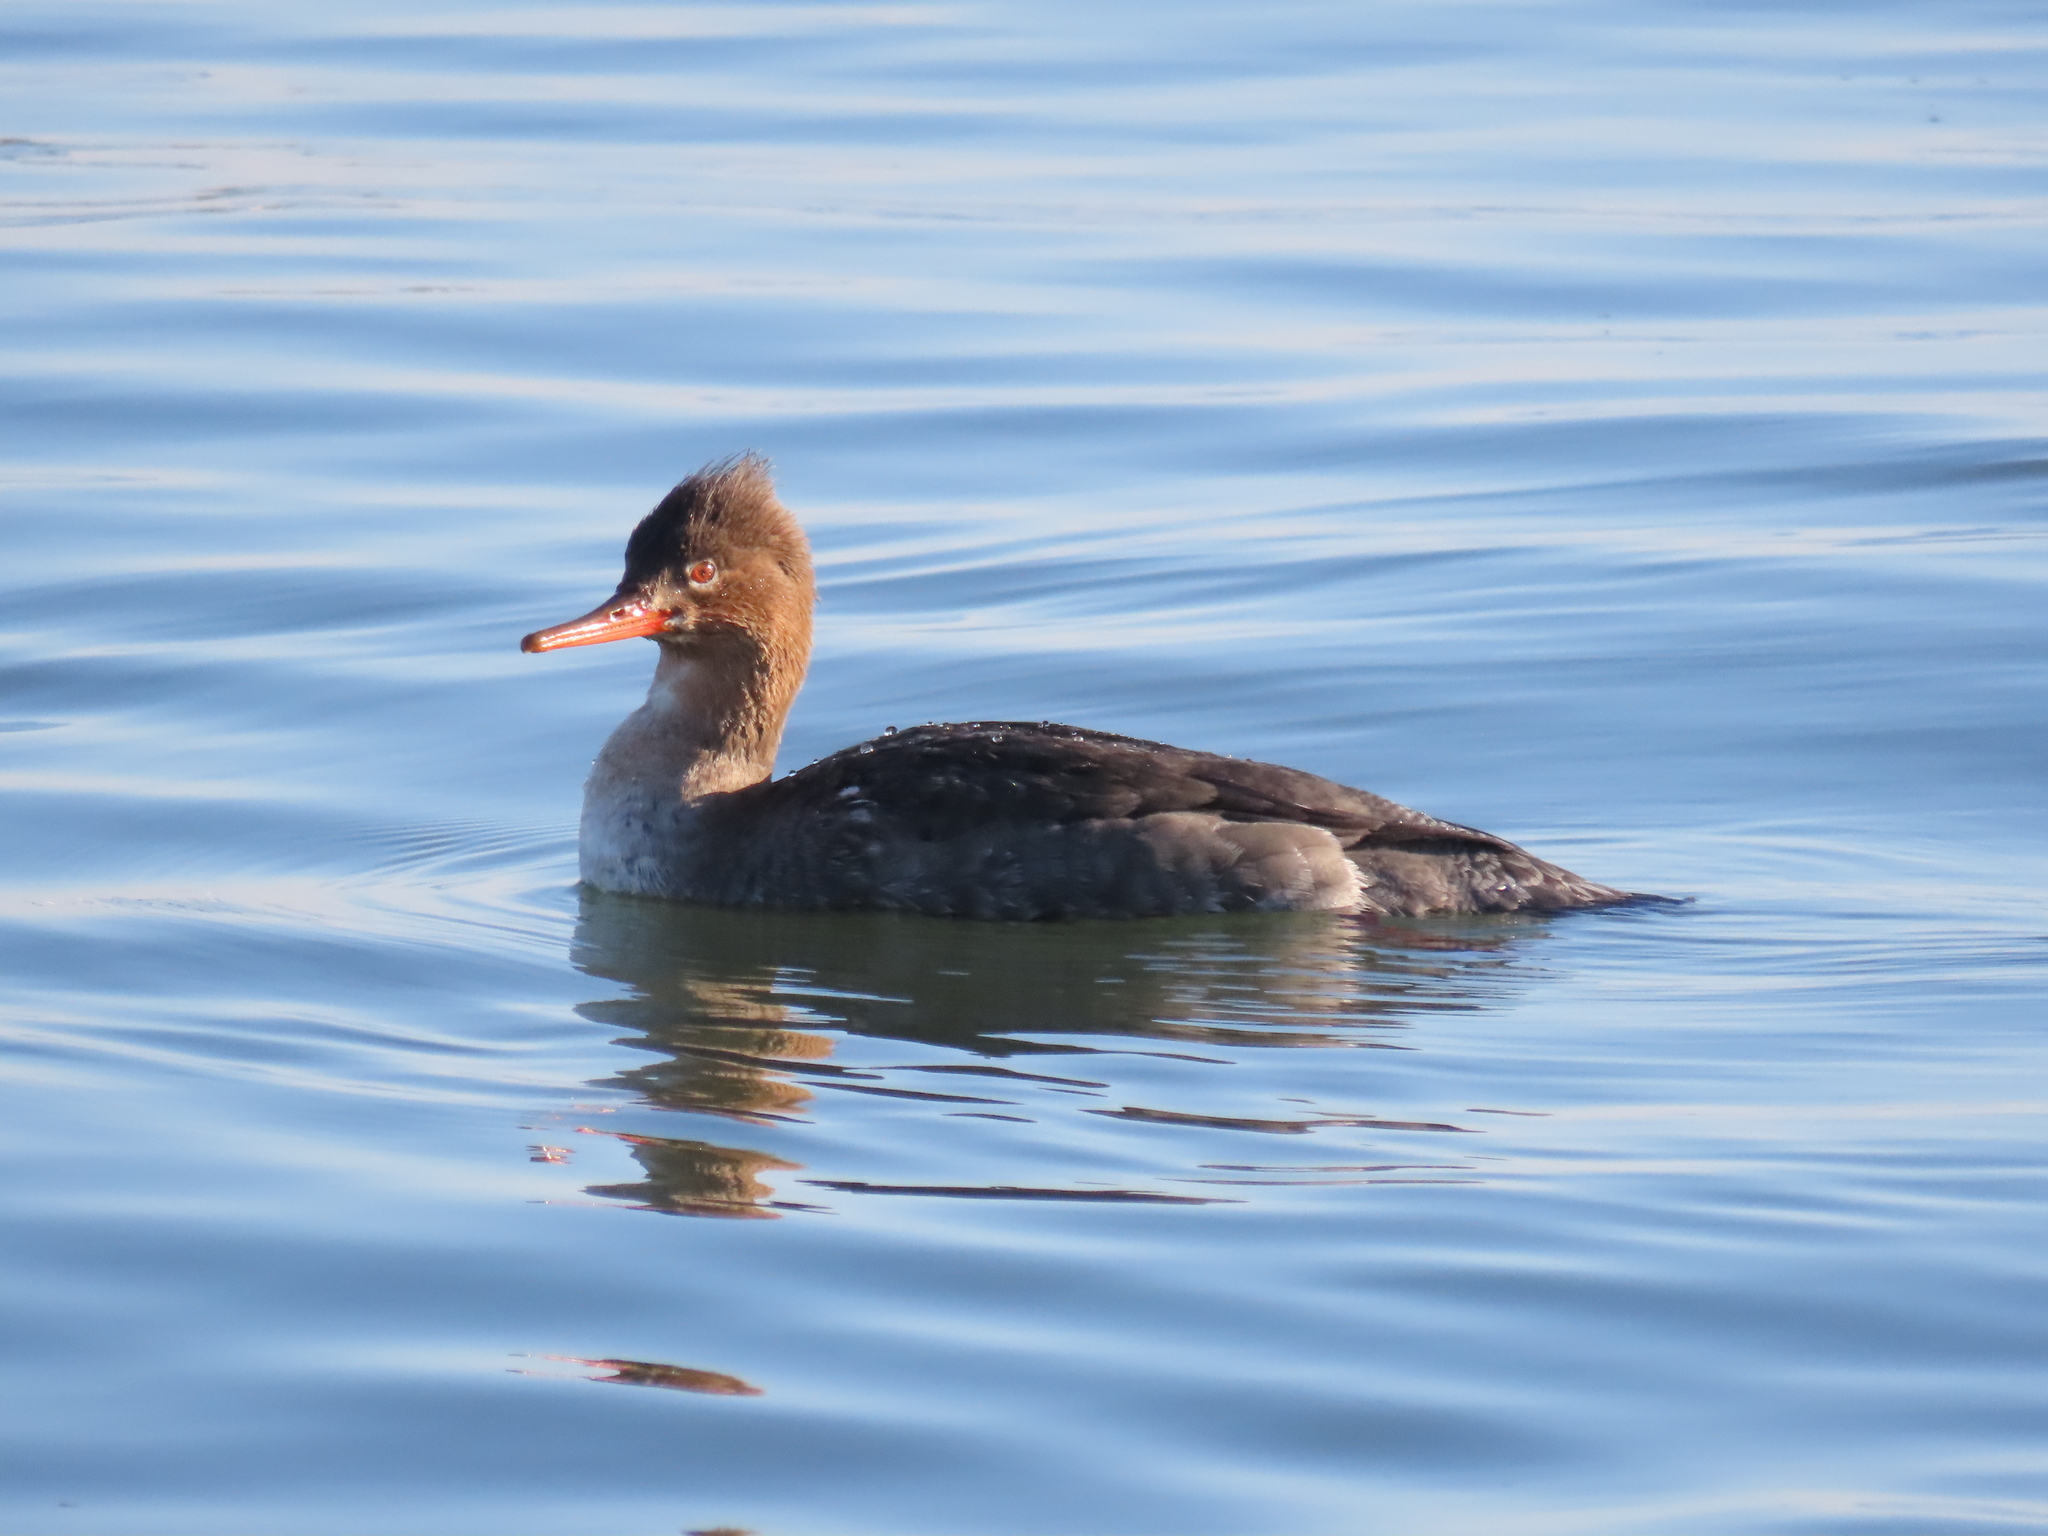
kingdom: Animalia
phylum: Chordata
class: Aves
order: Anseriformes
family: Anatidae
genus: Mergus
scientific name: Mergus serrator
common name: Red-breasted merganser
